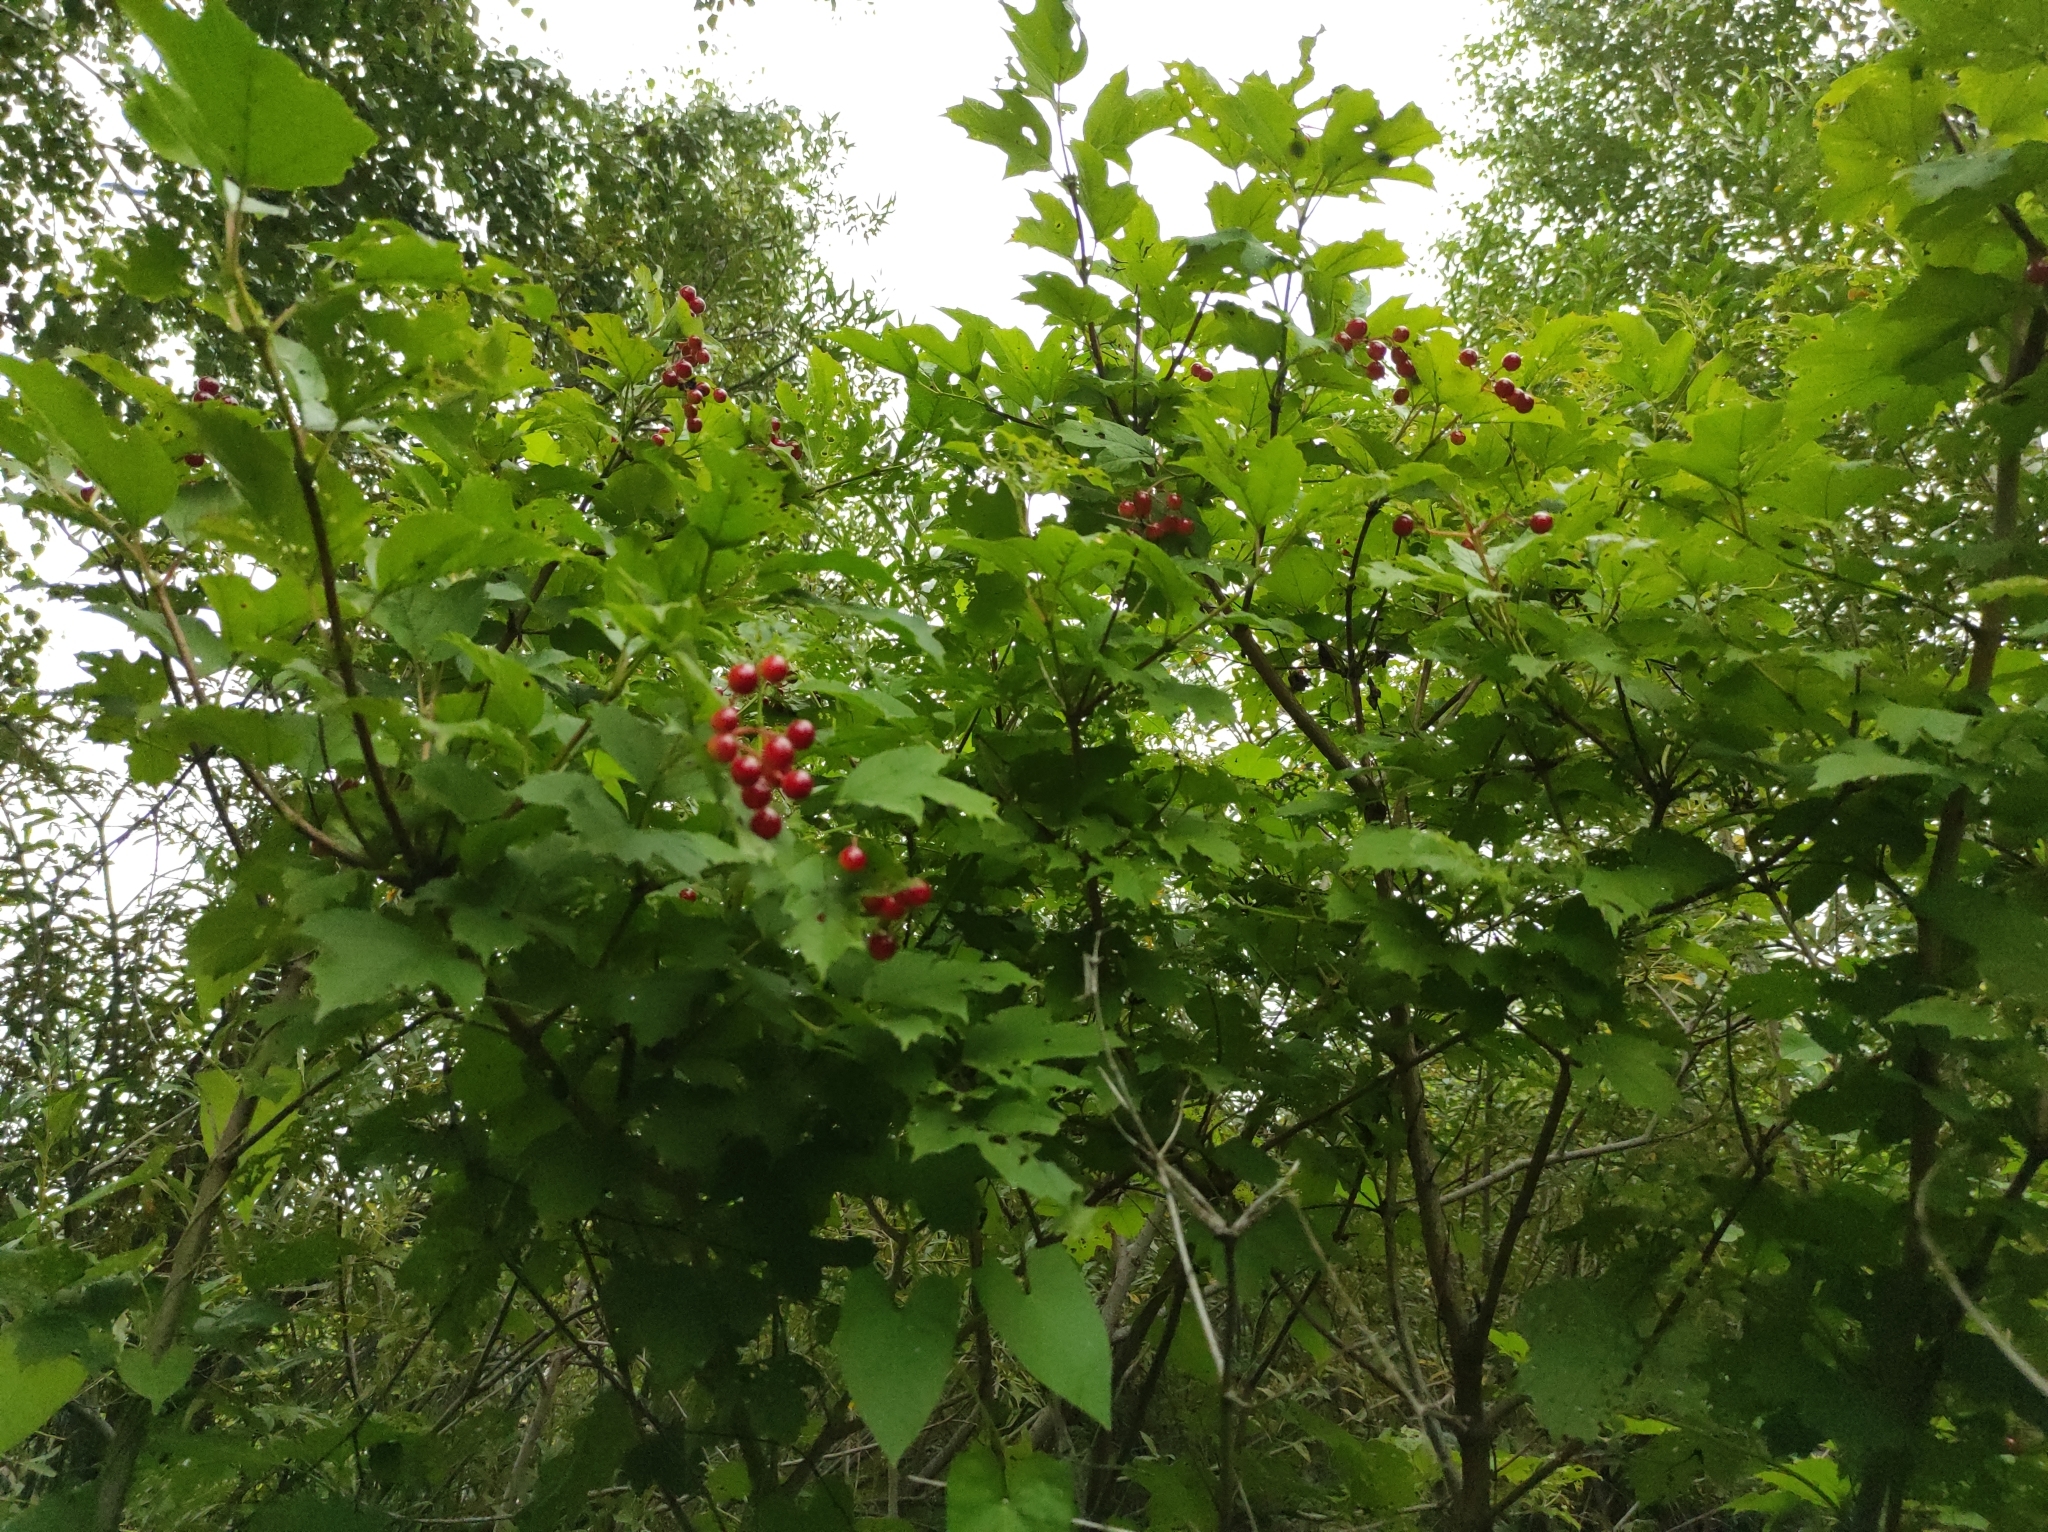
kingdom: Plantae
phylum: Tracheophyta
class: Magnoliopsida
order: Dipsacales
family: Viburnaceae
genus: Viburnum
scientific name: Viburnum opulus
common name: Guelder-rose
